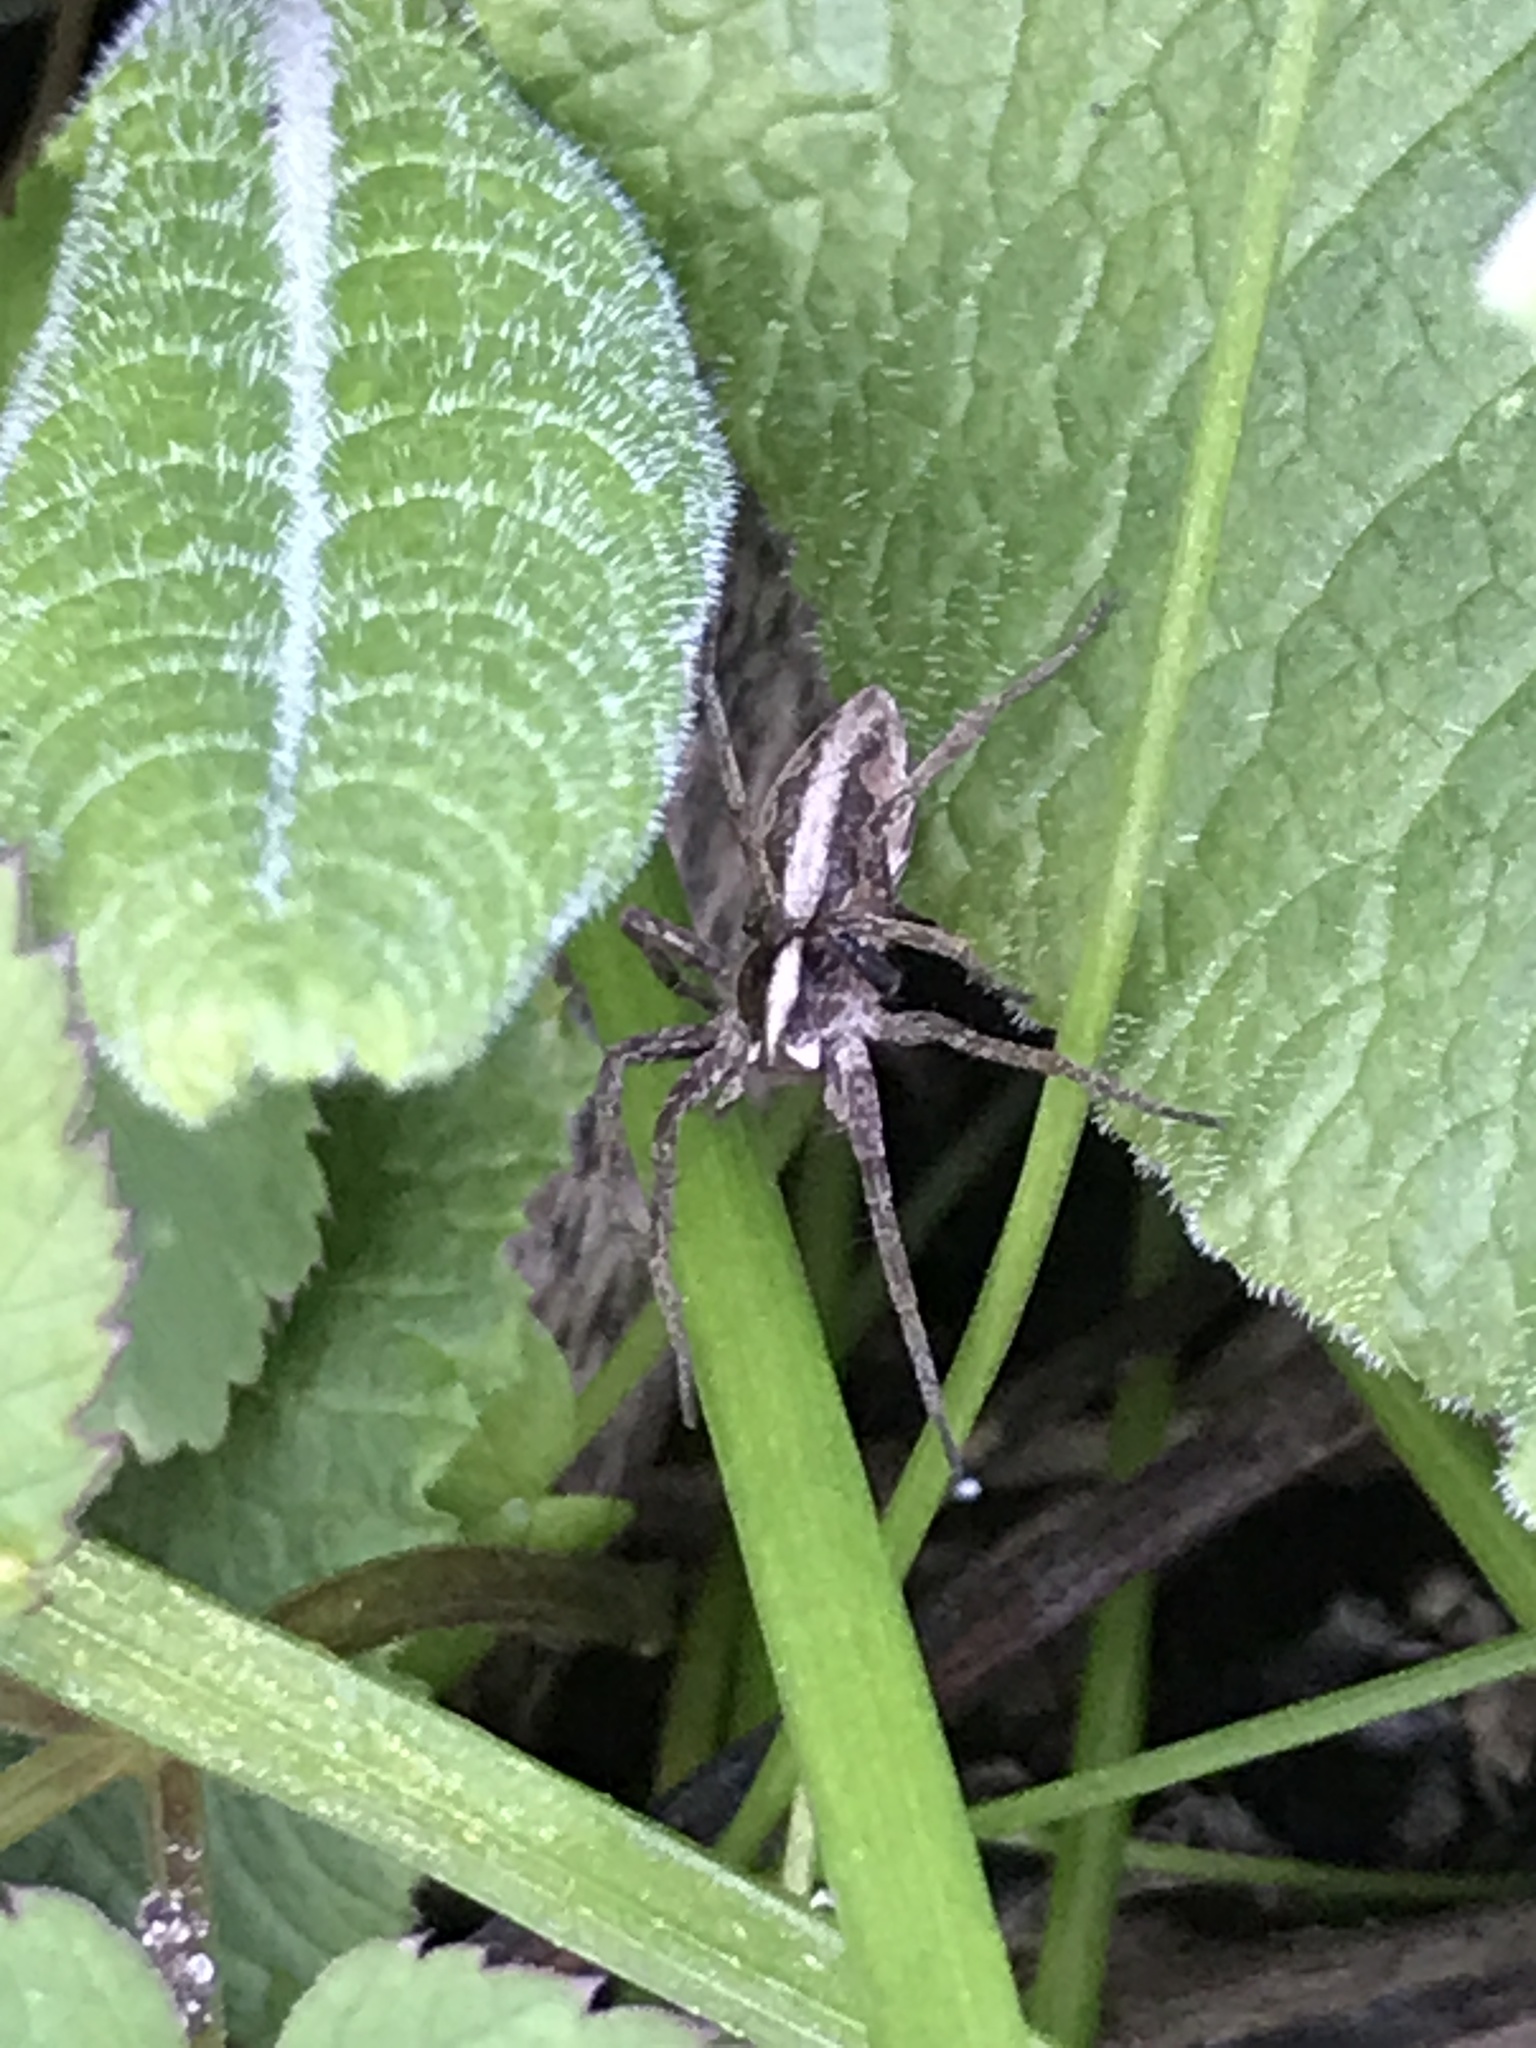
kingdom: Animalia
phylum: Arthropoda
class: Arachnida
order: Araneae
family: Pisauridae
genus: Pisaura
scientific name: Pisaura mirabilis
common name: Tent spider
